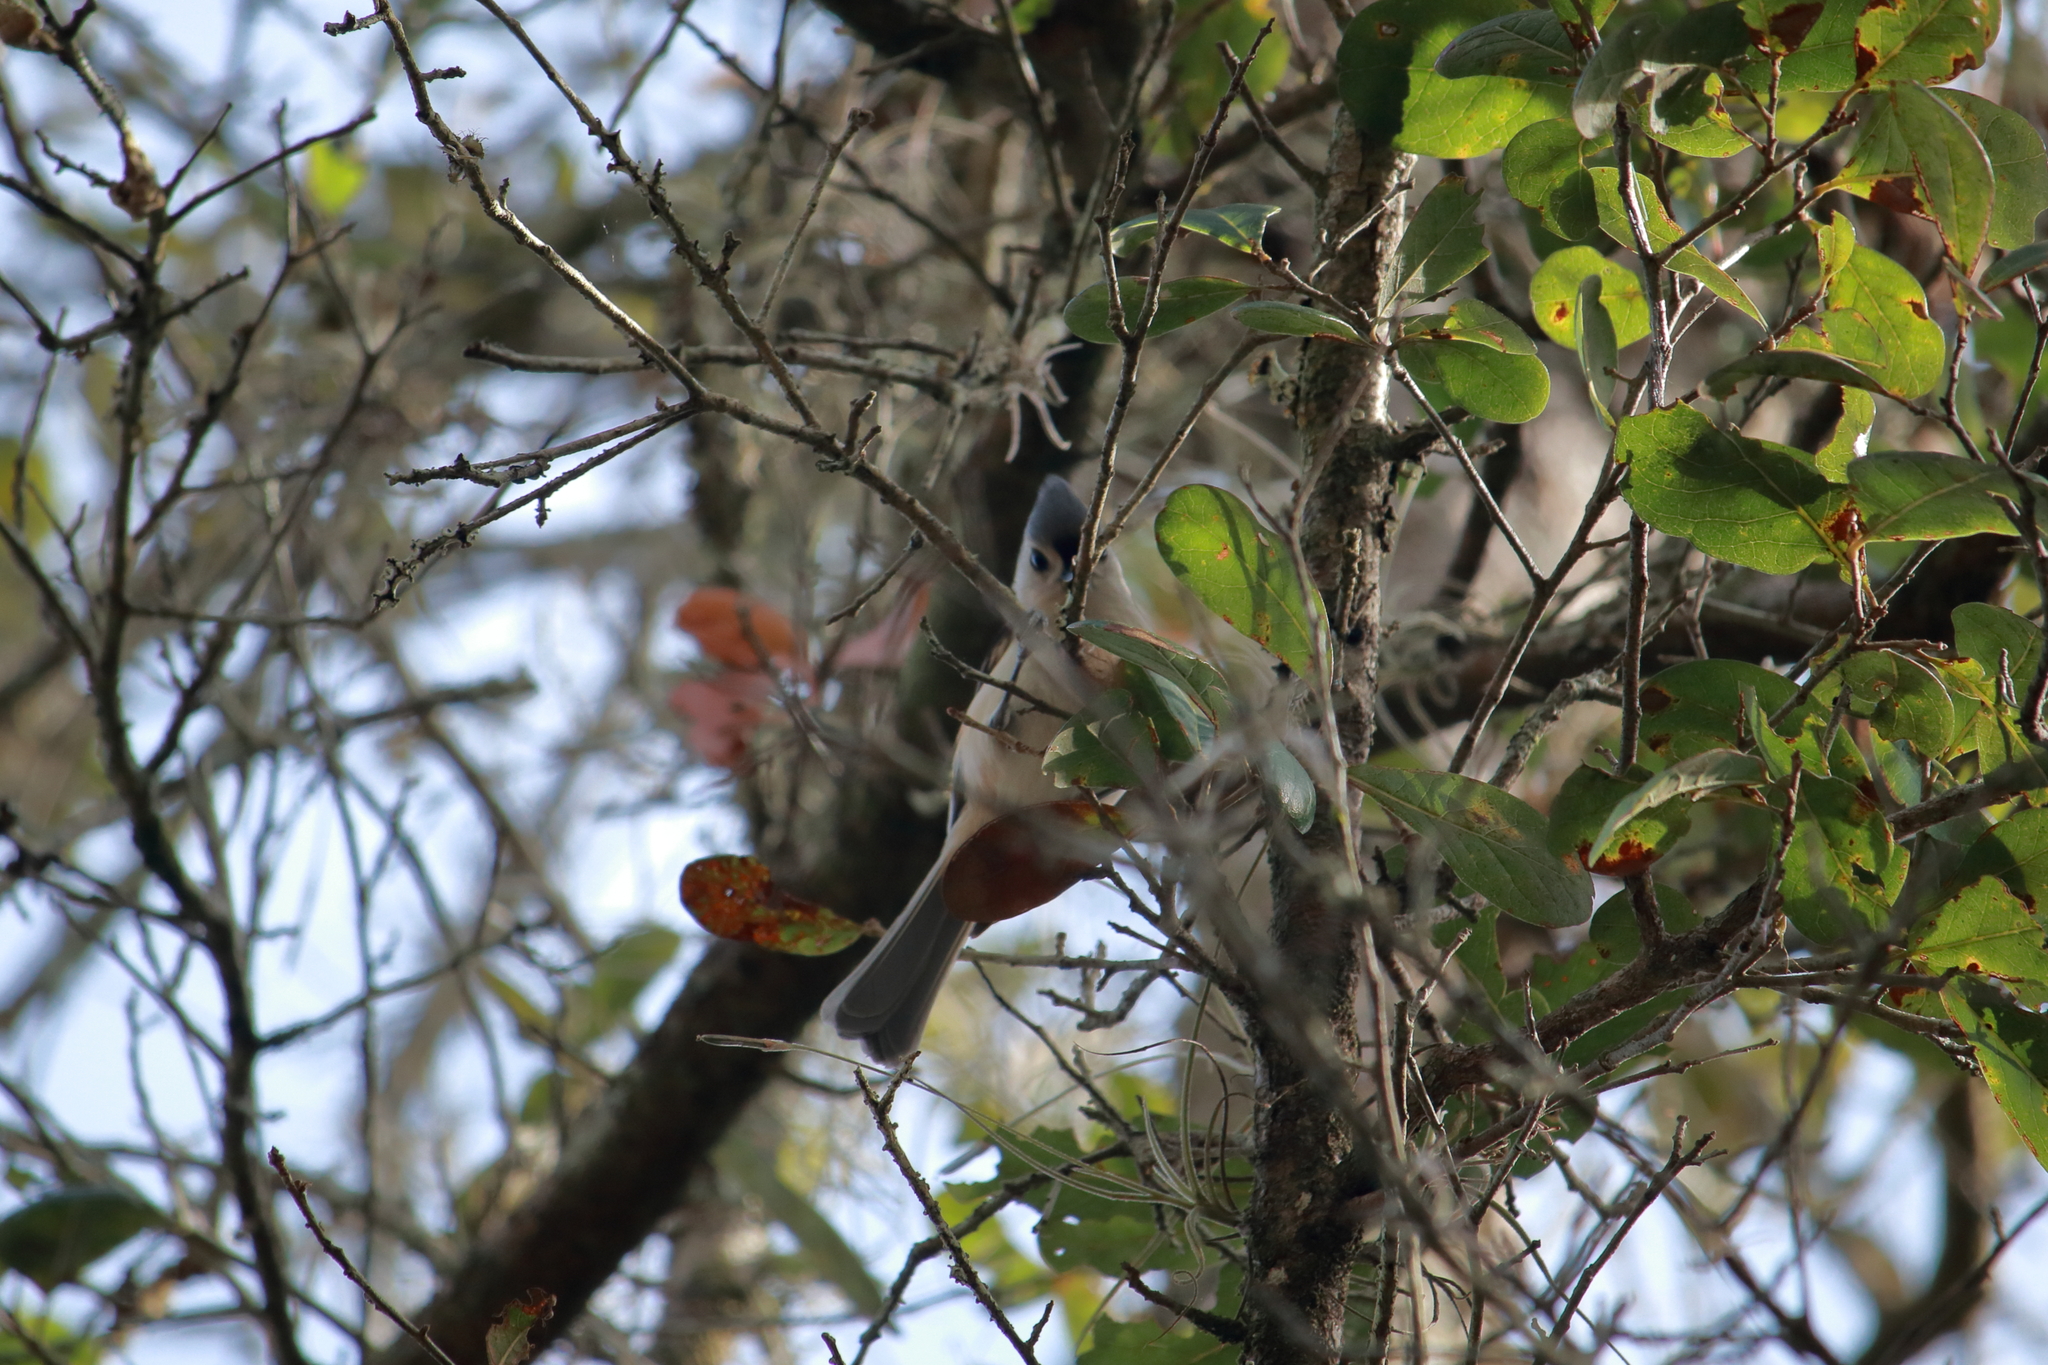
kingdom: Animalia
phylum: Chordata
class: Aves
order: Passeriformes
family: Paridae
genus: Baeolophus
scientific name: Baeolophus bicolor
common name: Tufted titmouse
